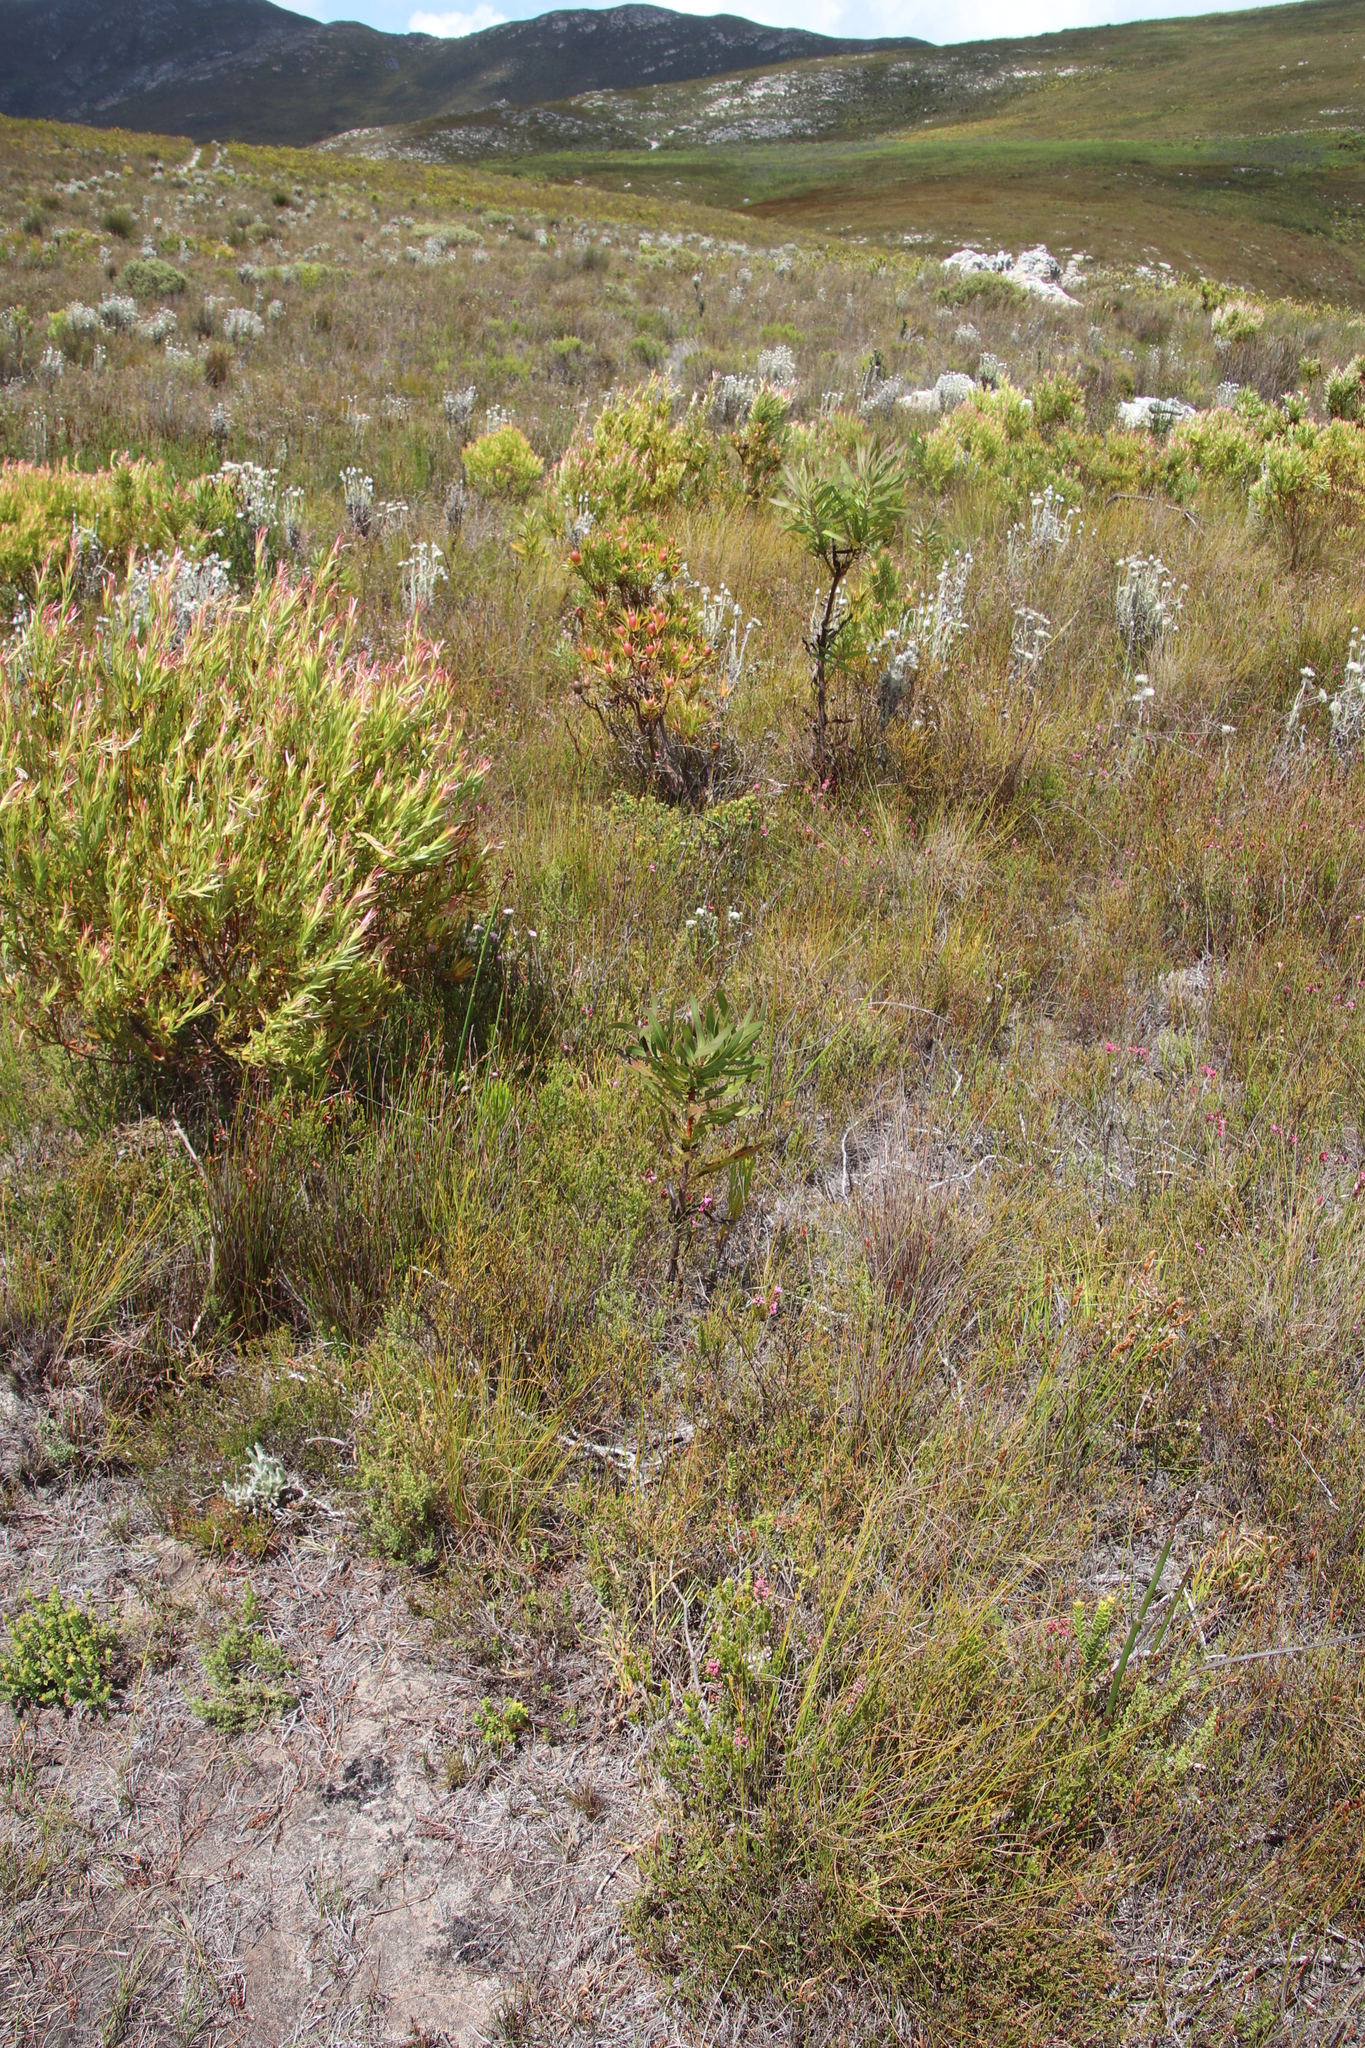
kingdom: Plantae
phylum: Tracheophyta
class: Magnoliopsida
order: Proteales
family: Proteaceae
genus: Protea
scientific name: Protea lepidocarpodendron
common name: Black-bearded protea
